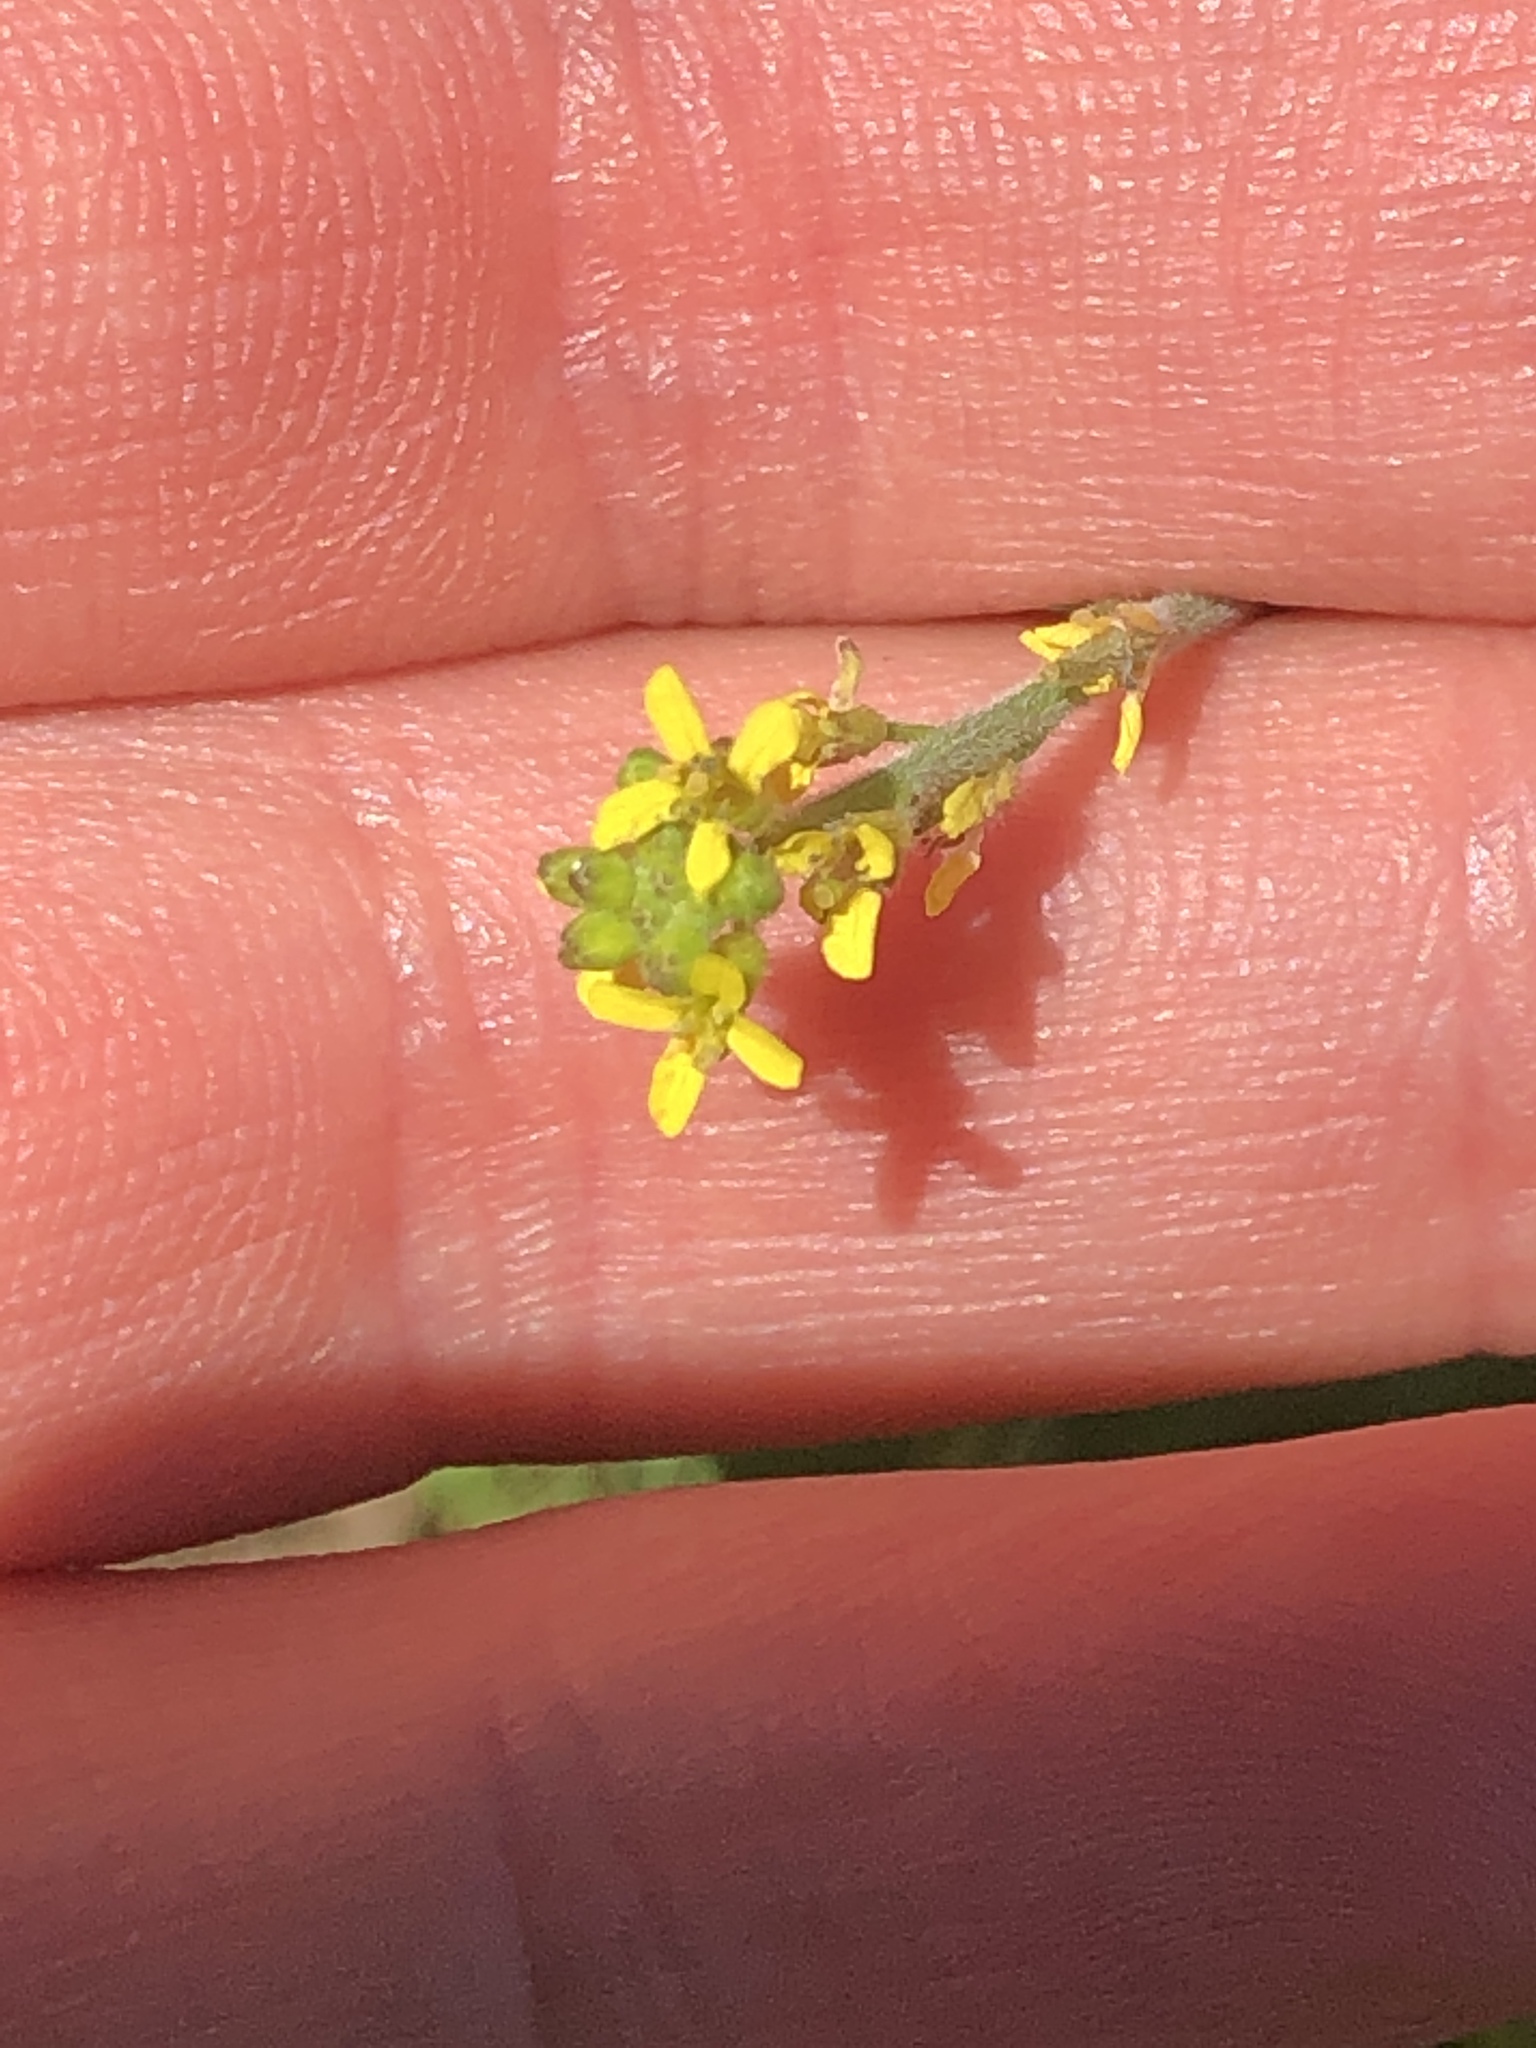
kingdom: Plantae
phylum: Tracheophyta
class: Magnoliopsida
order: Brassicales
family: Brassicaceae
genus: Sisymbrium
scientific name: Sisymbrium officinale
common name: Hedge mustard
